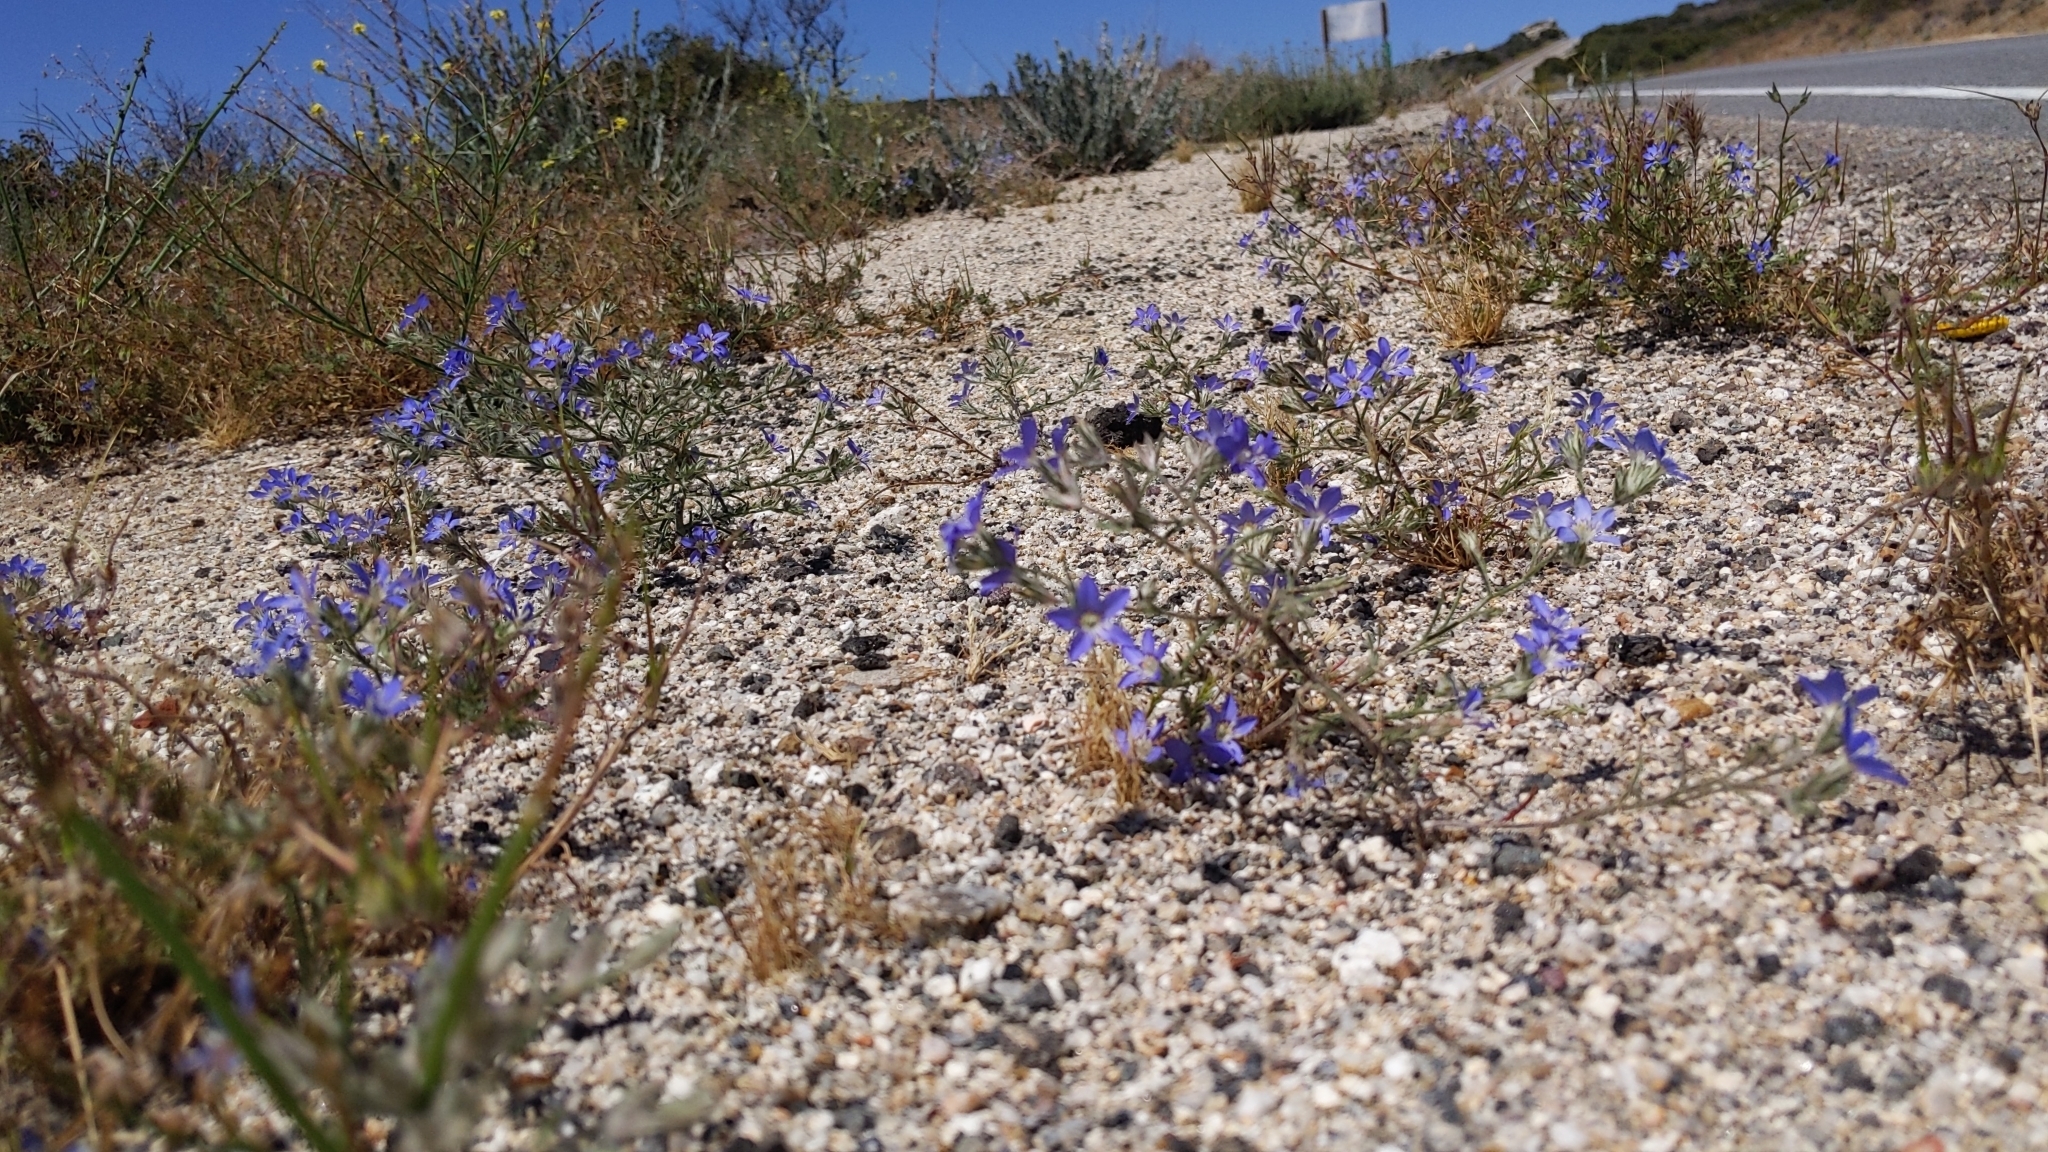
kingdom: Plantae
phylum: Tracheophyta
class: Magnoliopsida
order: Ericales
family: Polemoniaceae
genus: Eriastrum
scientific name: Eriastrum sapphirinum
